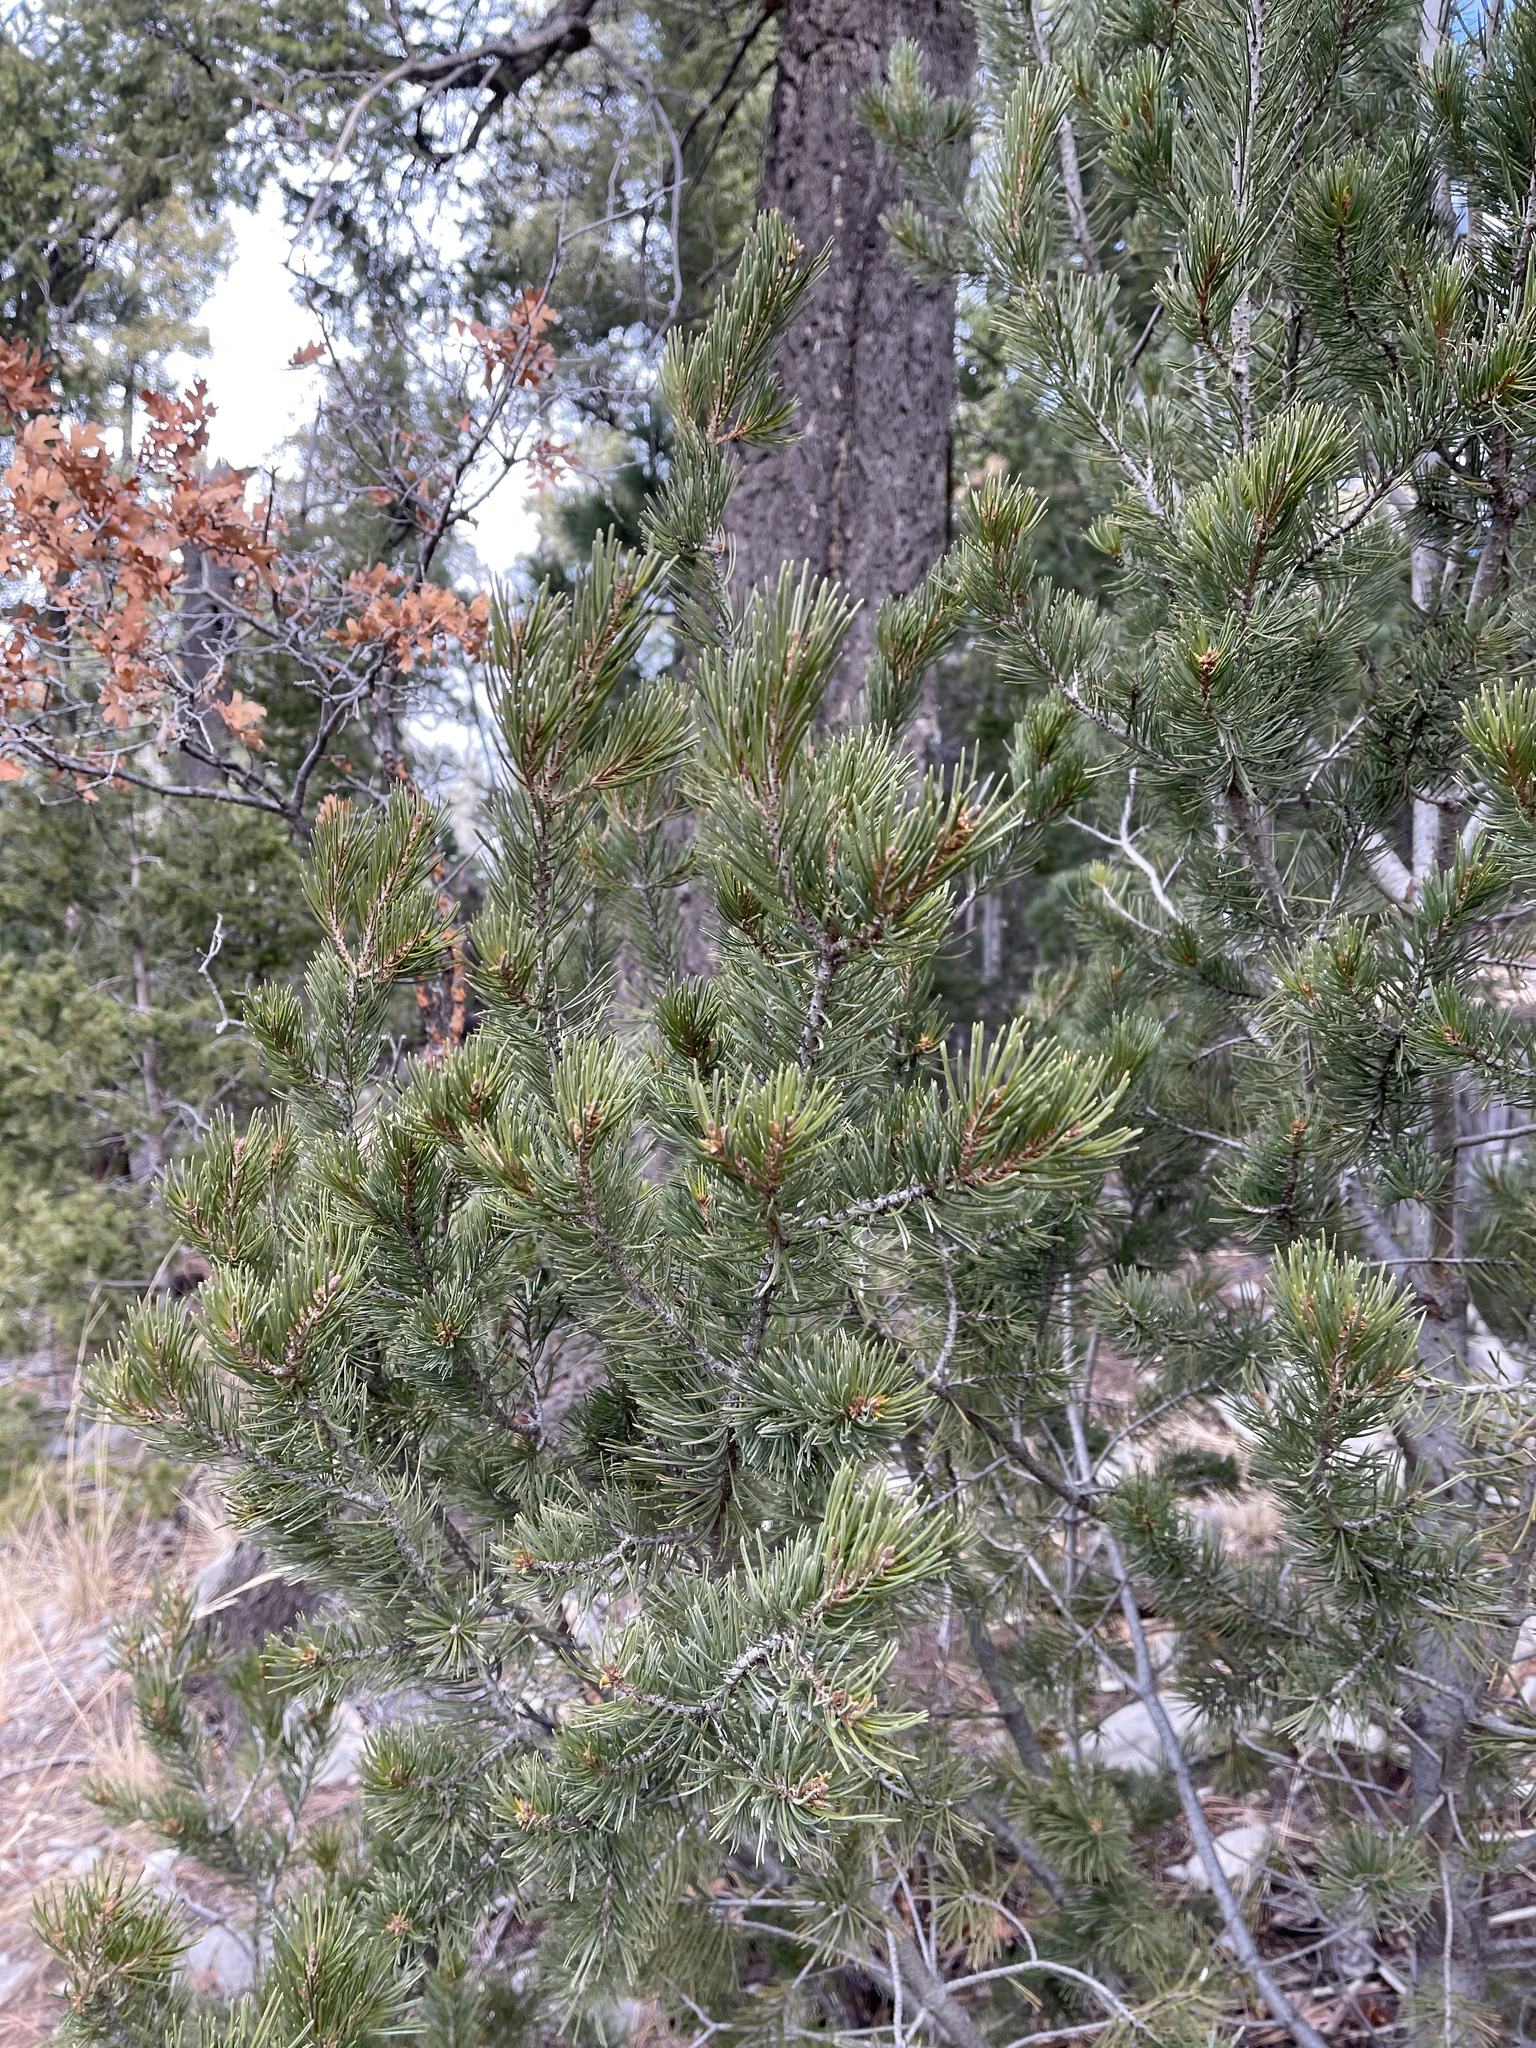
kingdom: Plantae
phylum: Tracheophyta
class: Pinopsida
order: Pinales
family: Pinaceae
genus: Pinus
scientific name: Pinus edulis
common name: Colorado pinyon
